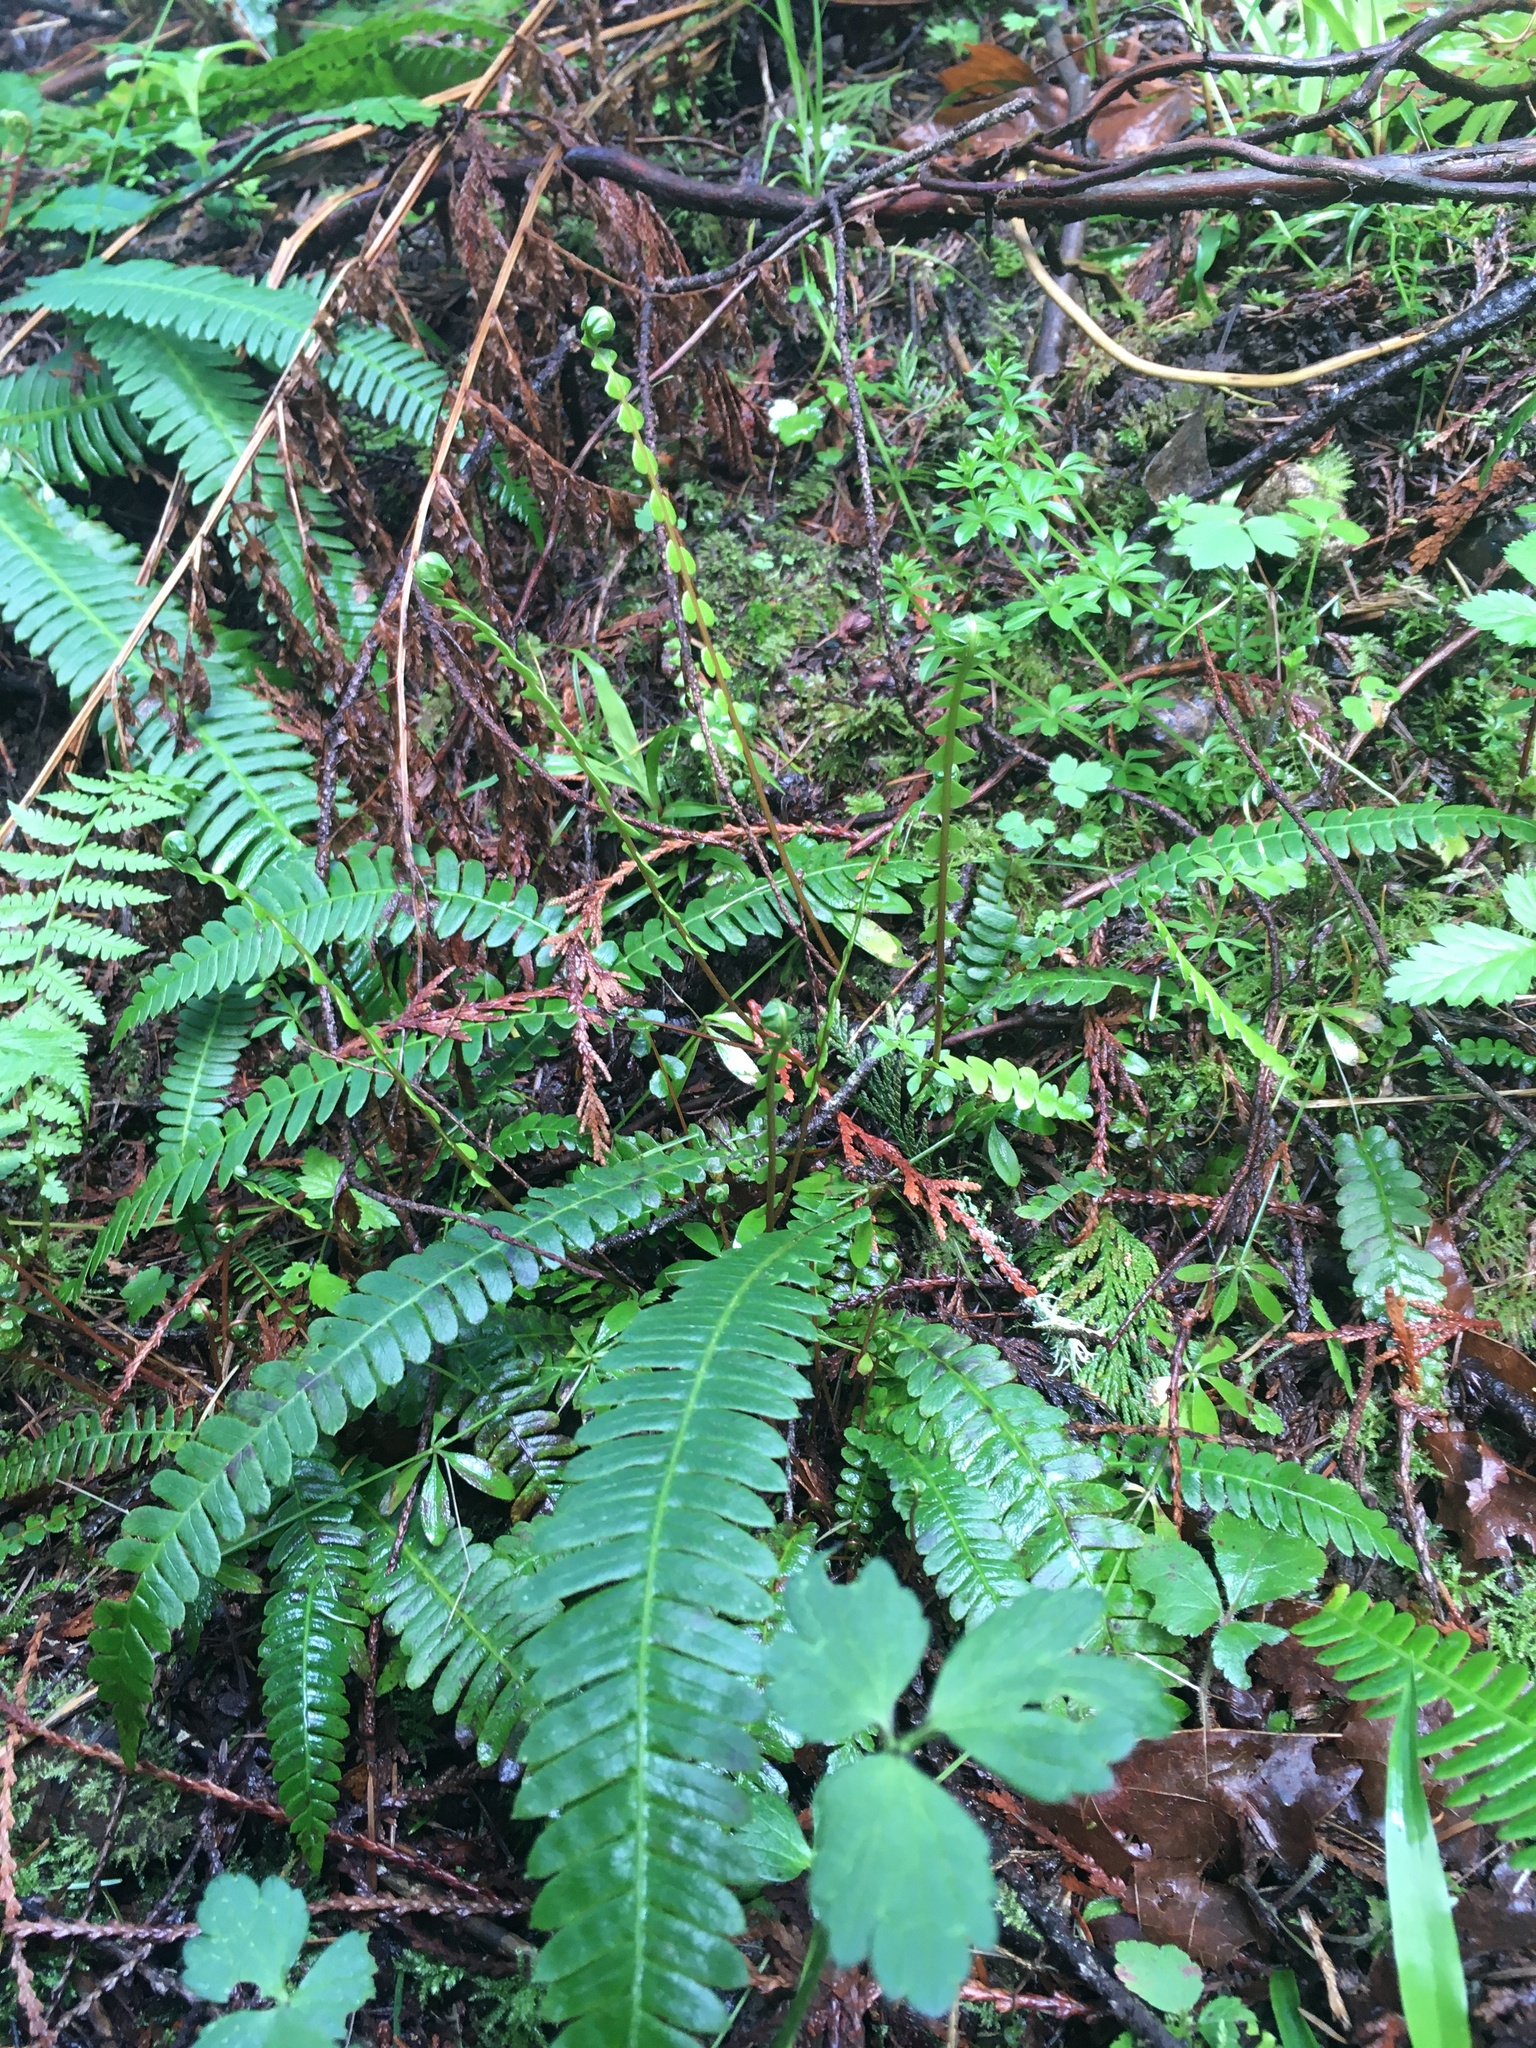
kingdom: Plantae
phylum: Tracheophyta
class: Polypodiopsida
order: Polypodiales
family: Blechnaceae
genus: Struthiopteris
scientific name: Struthiopteris spicant
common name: Deer fern
